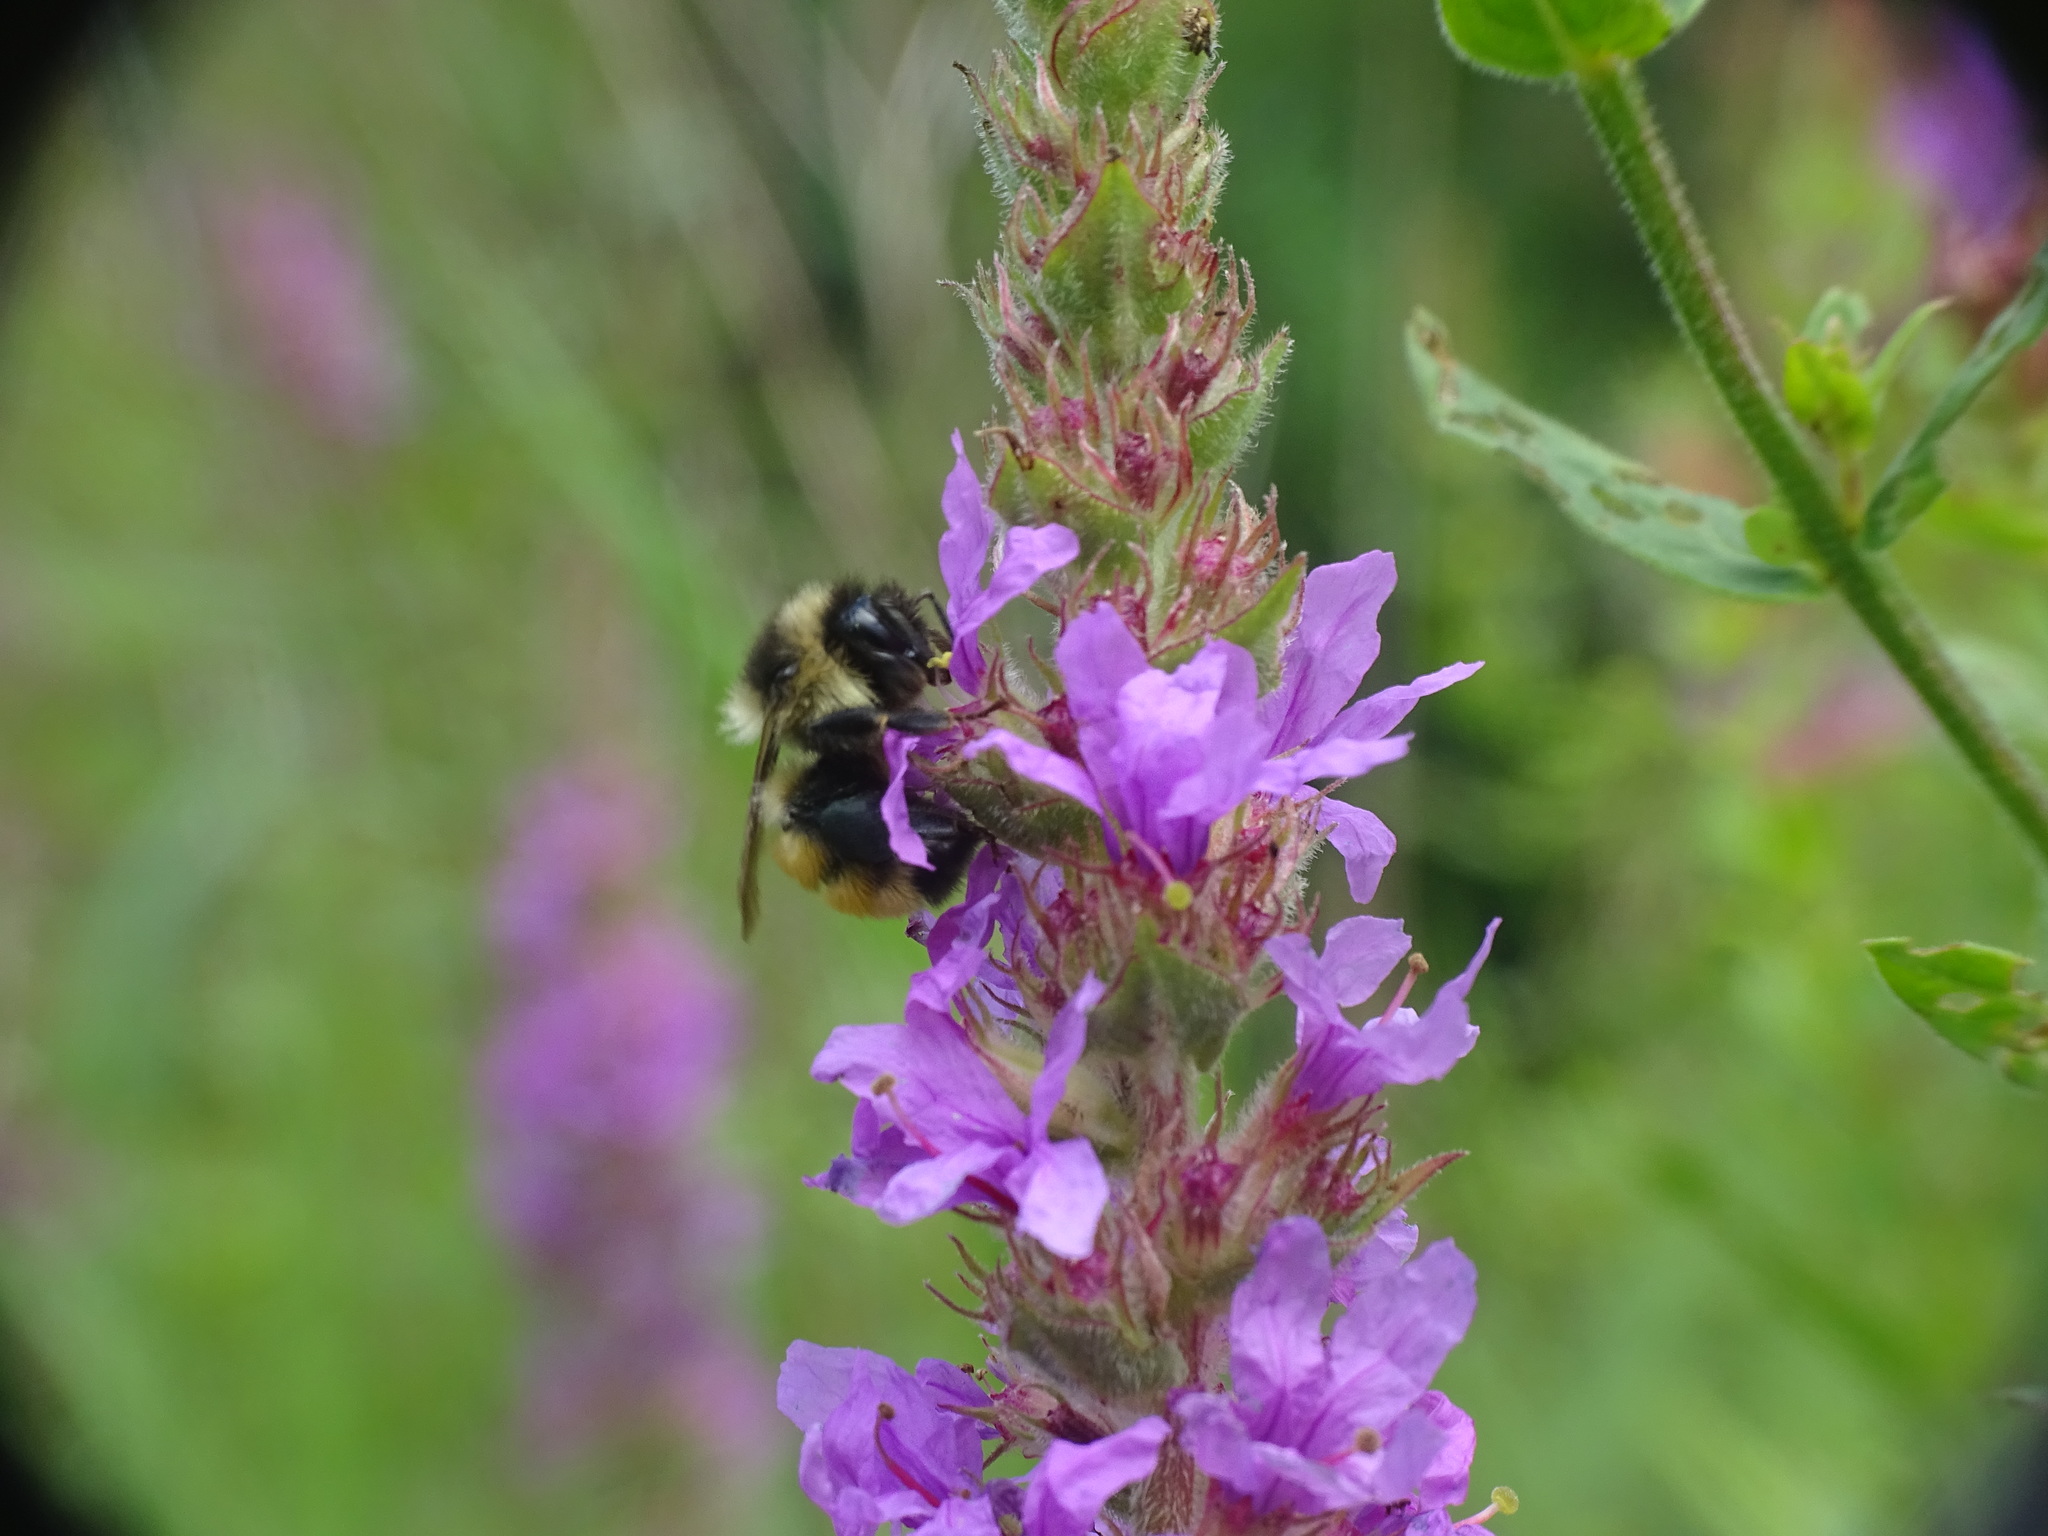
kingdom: Animalia
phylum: Arthropoda
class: Insecta
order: Hymenoptera
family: Apidae
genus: Bombus
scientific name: Bombus ternarius
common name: Tri-colored bumble bee
